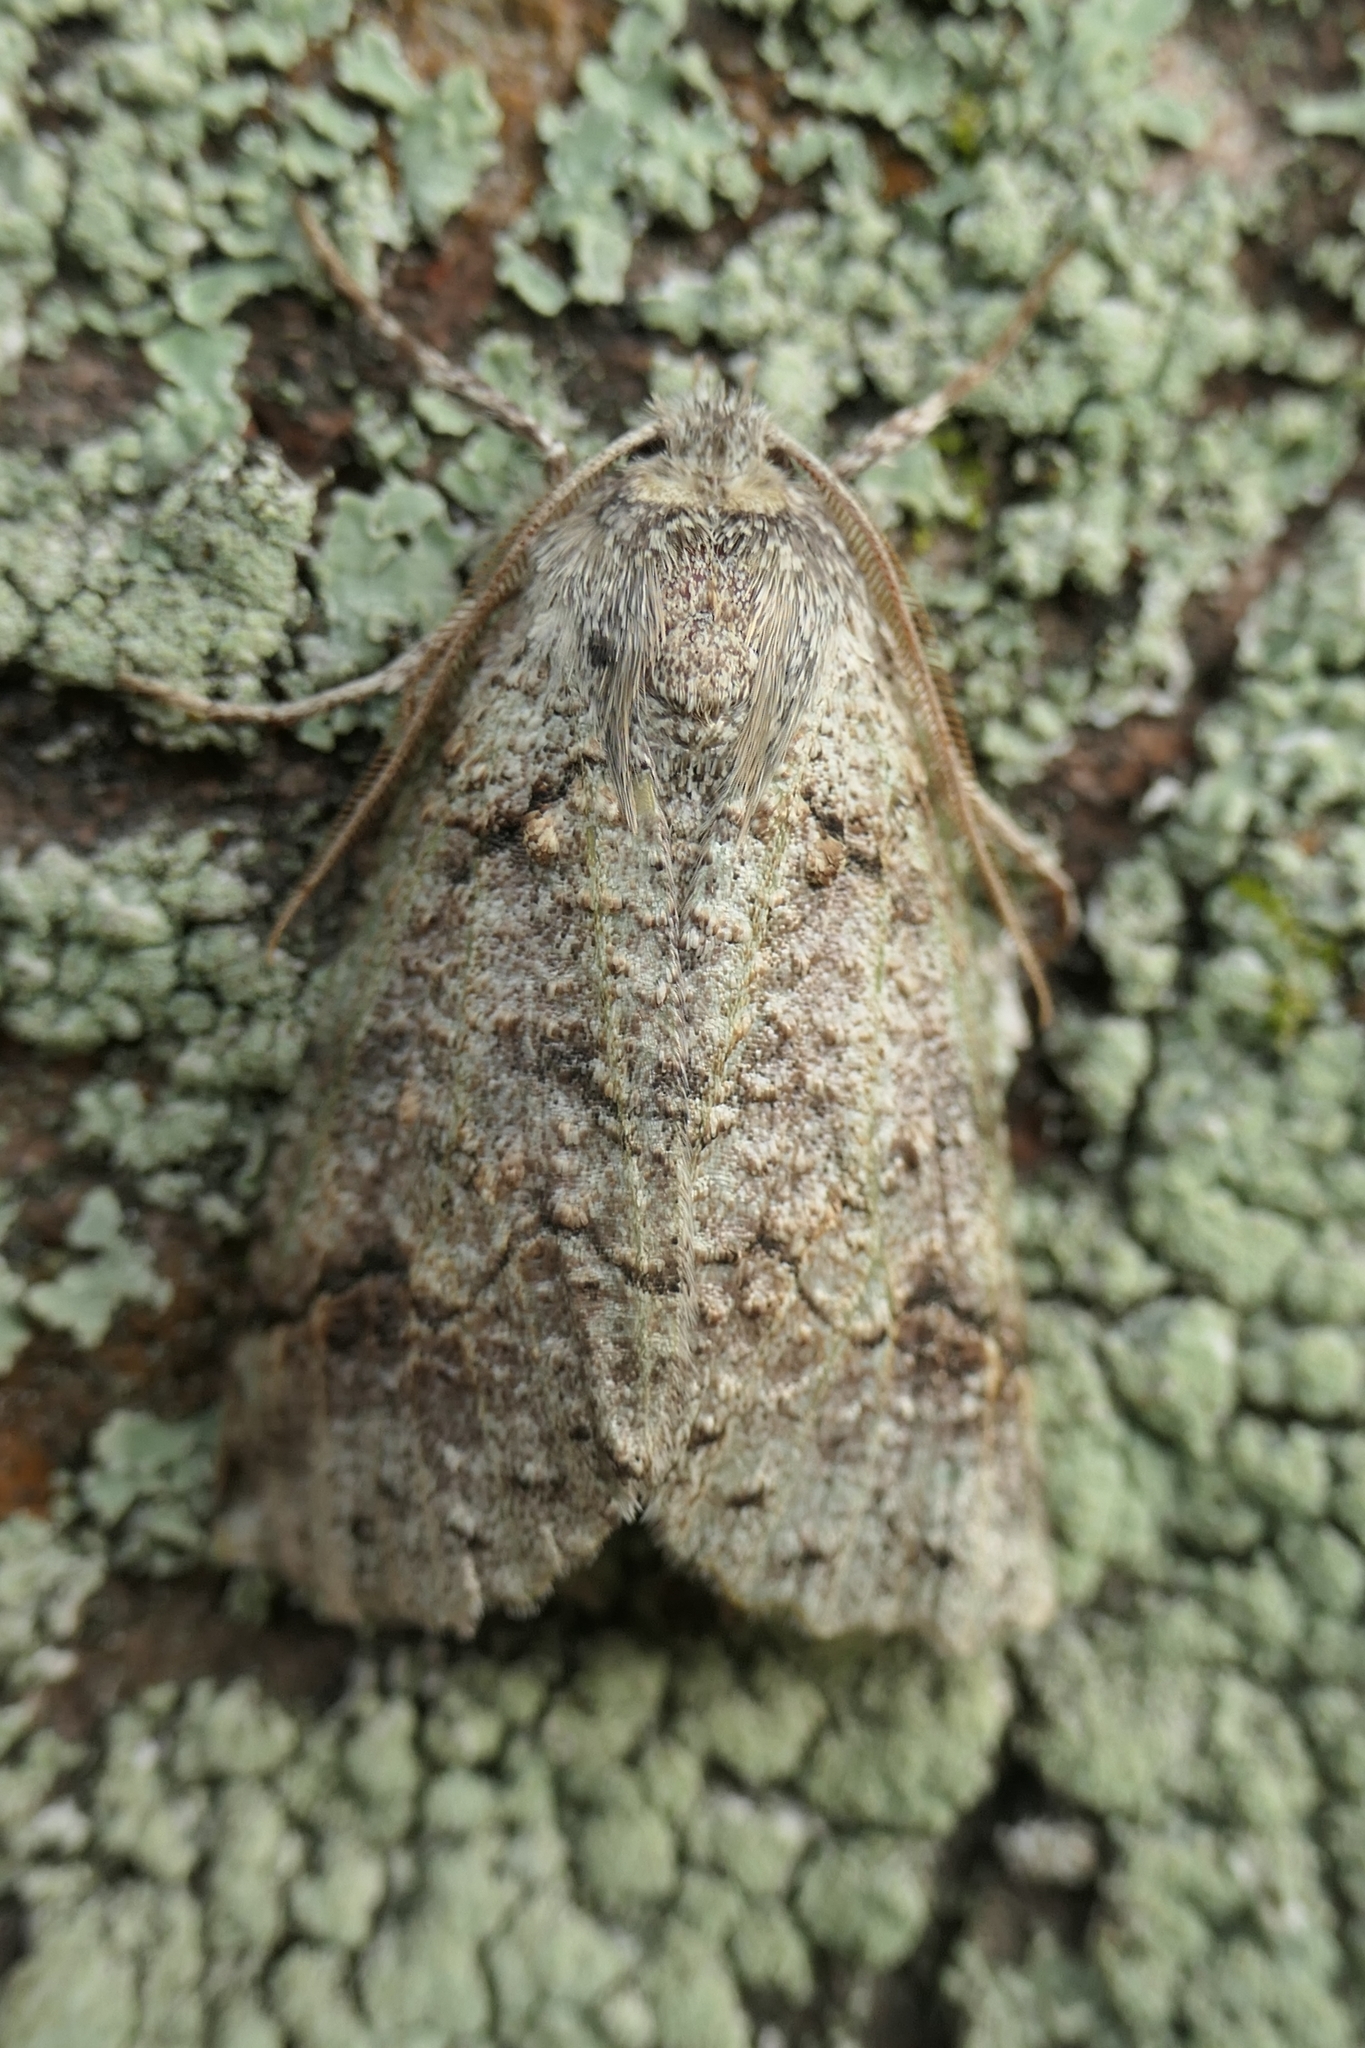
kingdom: Animalia
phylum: Arthropoda
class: Insecta
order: Lepidoptera
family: Geometridae
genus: Declana
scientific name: Declana floccosa
